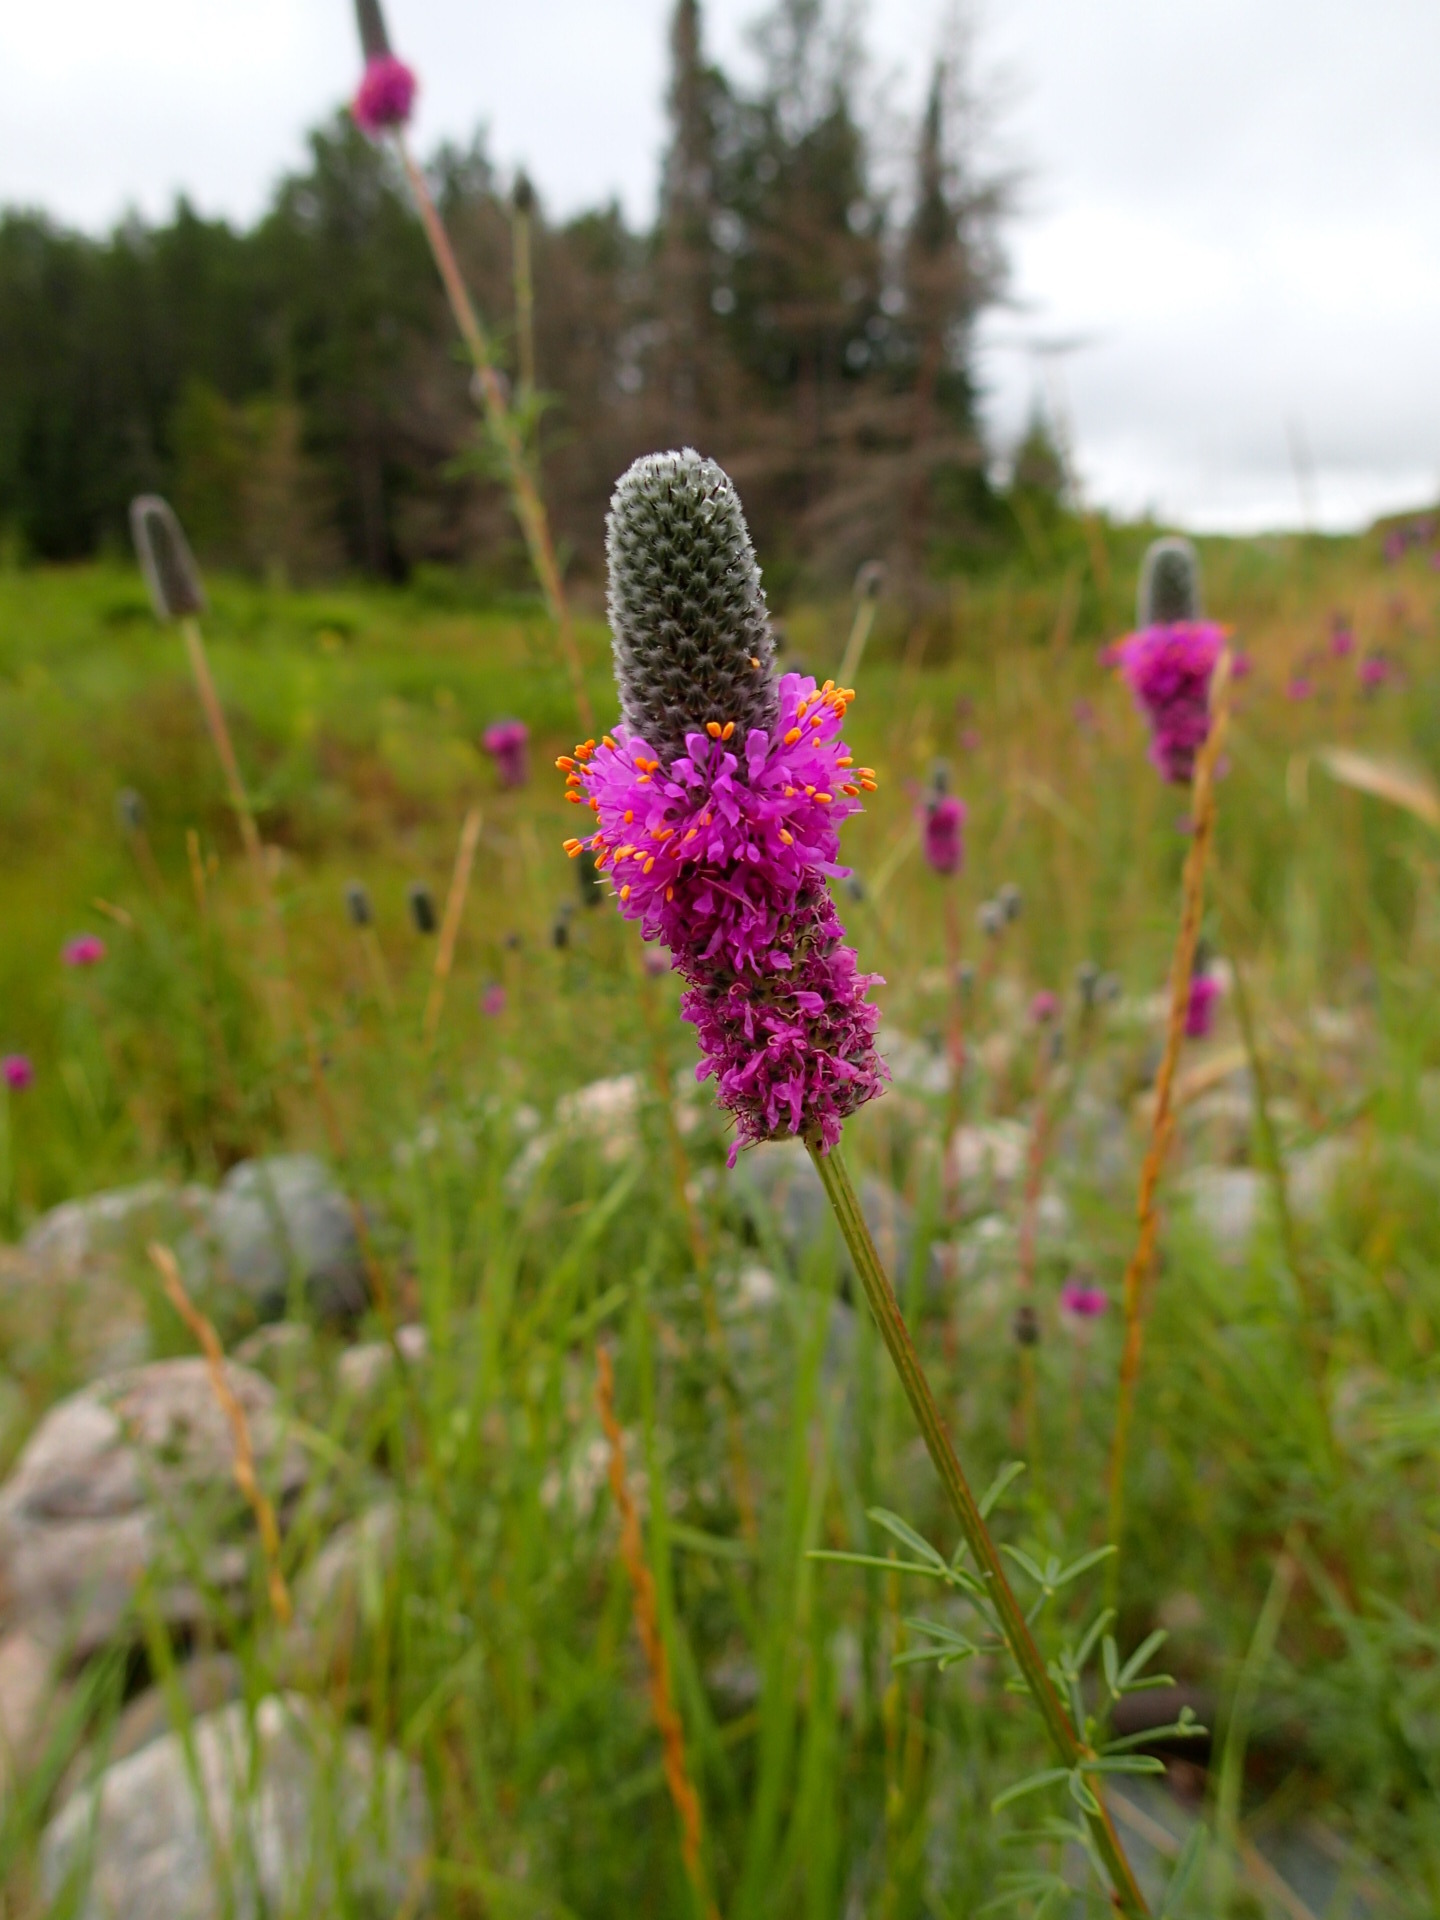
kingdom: Plantae
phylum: Tracheophyta
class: Magnoliopsida
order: Fabales
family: Fabaceae
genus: Dalea
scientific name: Dalea purpurea
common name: Purple prairie-clover
